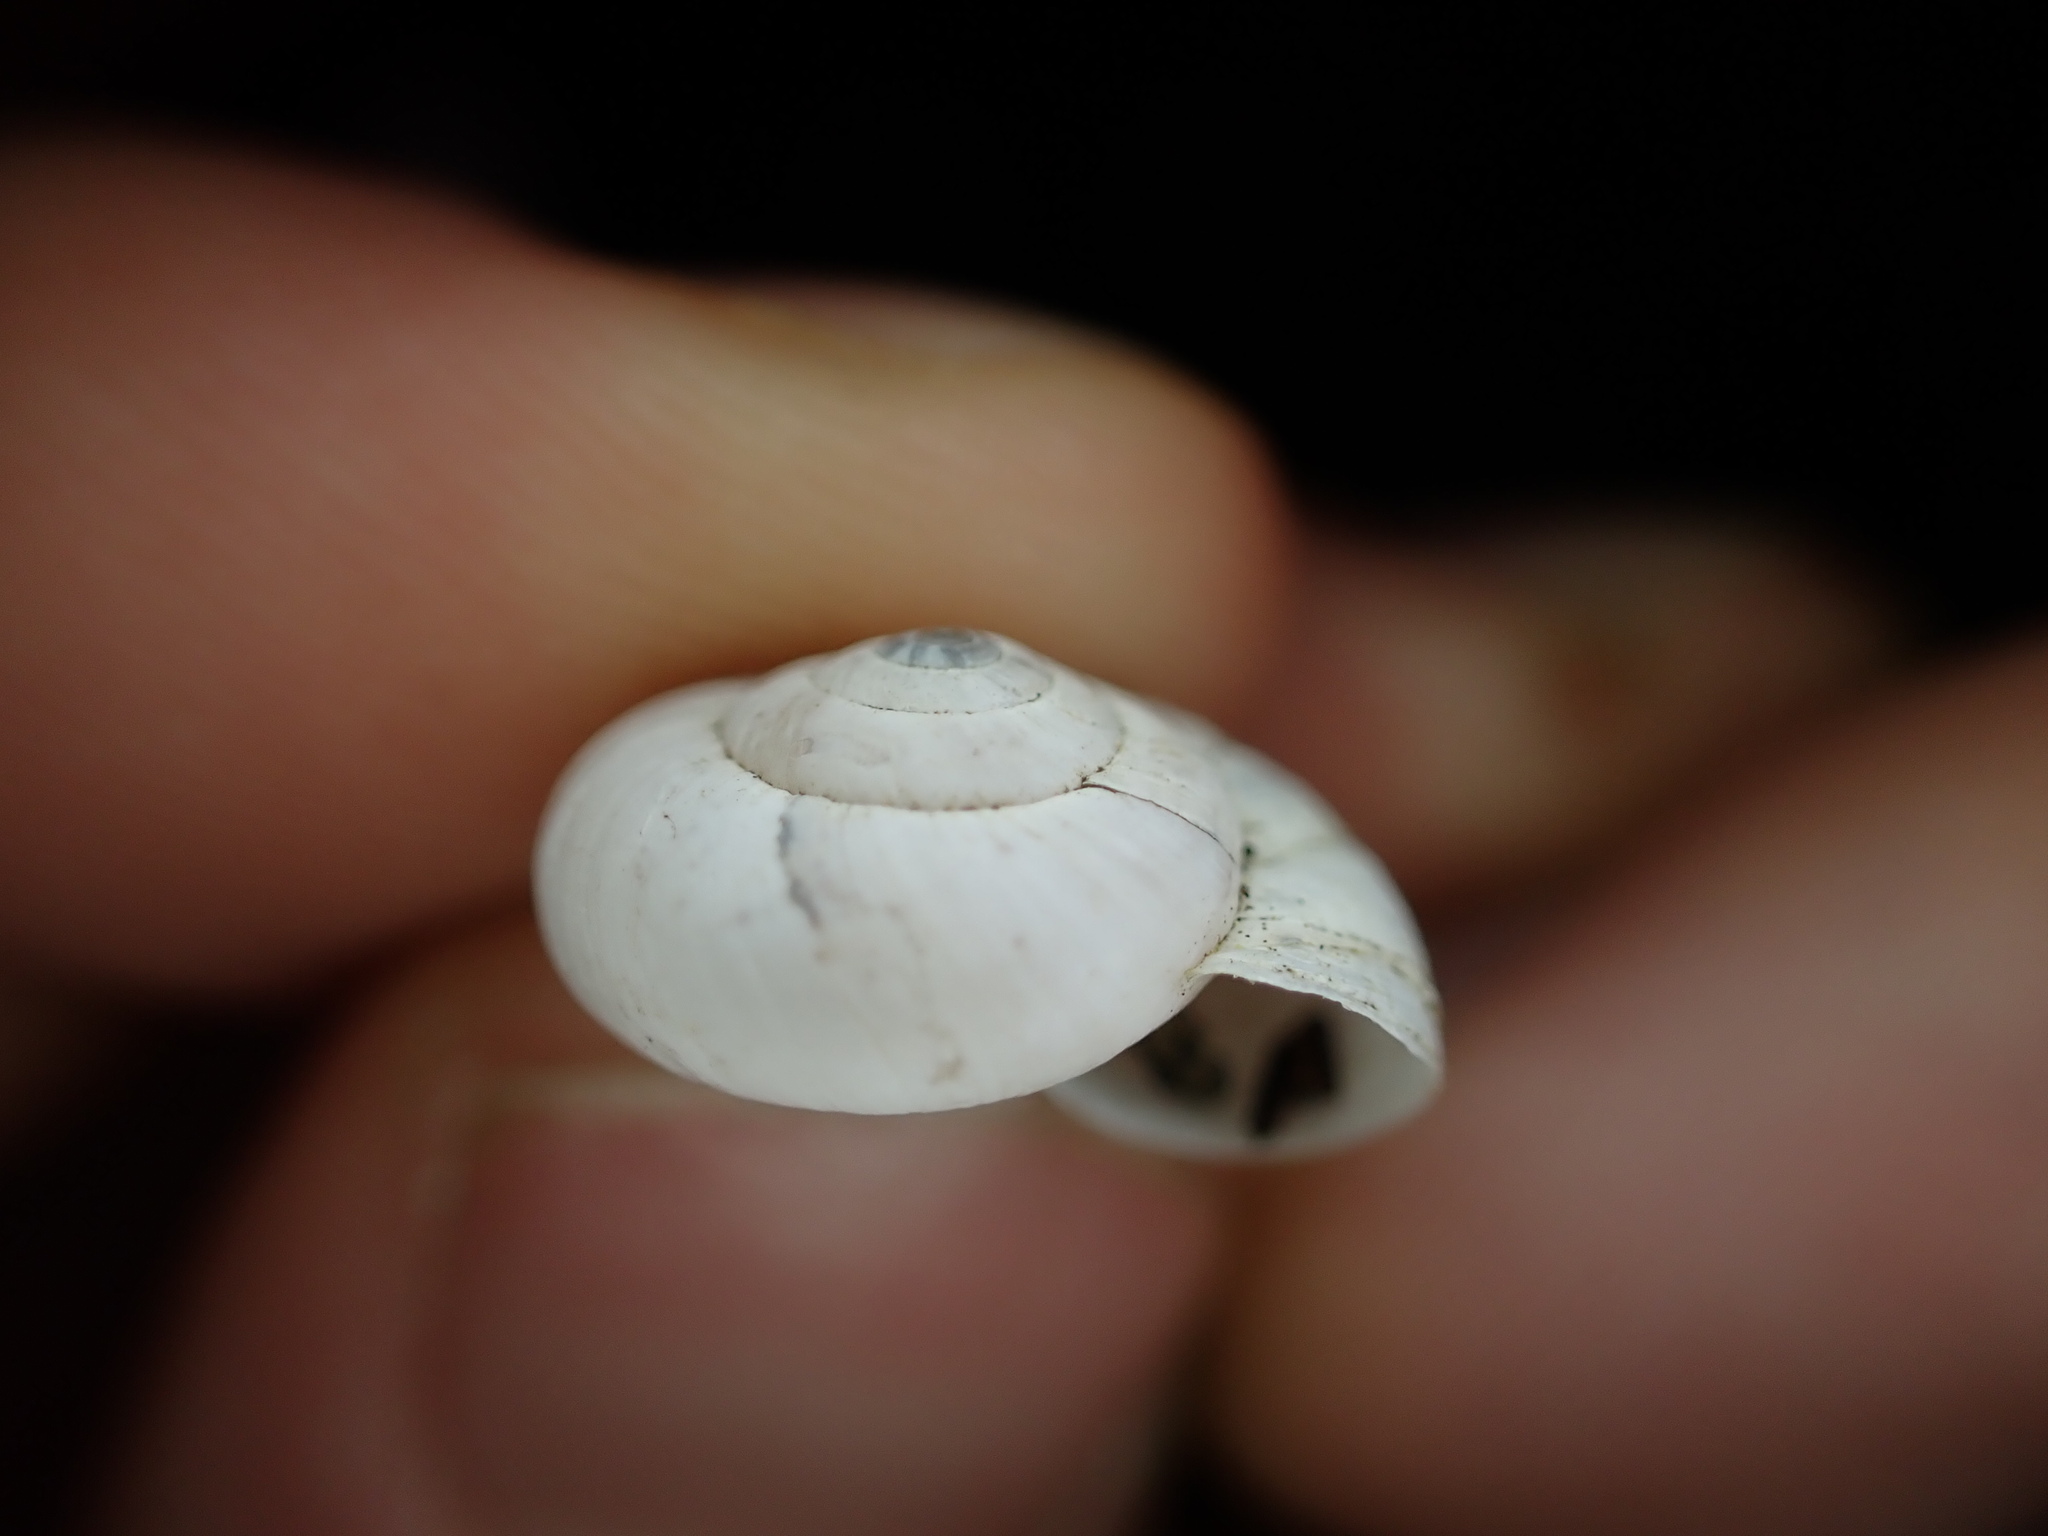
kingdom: Animalia
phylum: Mollusca
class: Gastropoda
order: Stylommatophora
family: Geomitridae
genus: Xeropicta
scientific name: Xeropicta derbentina
